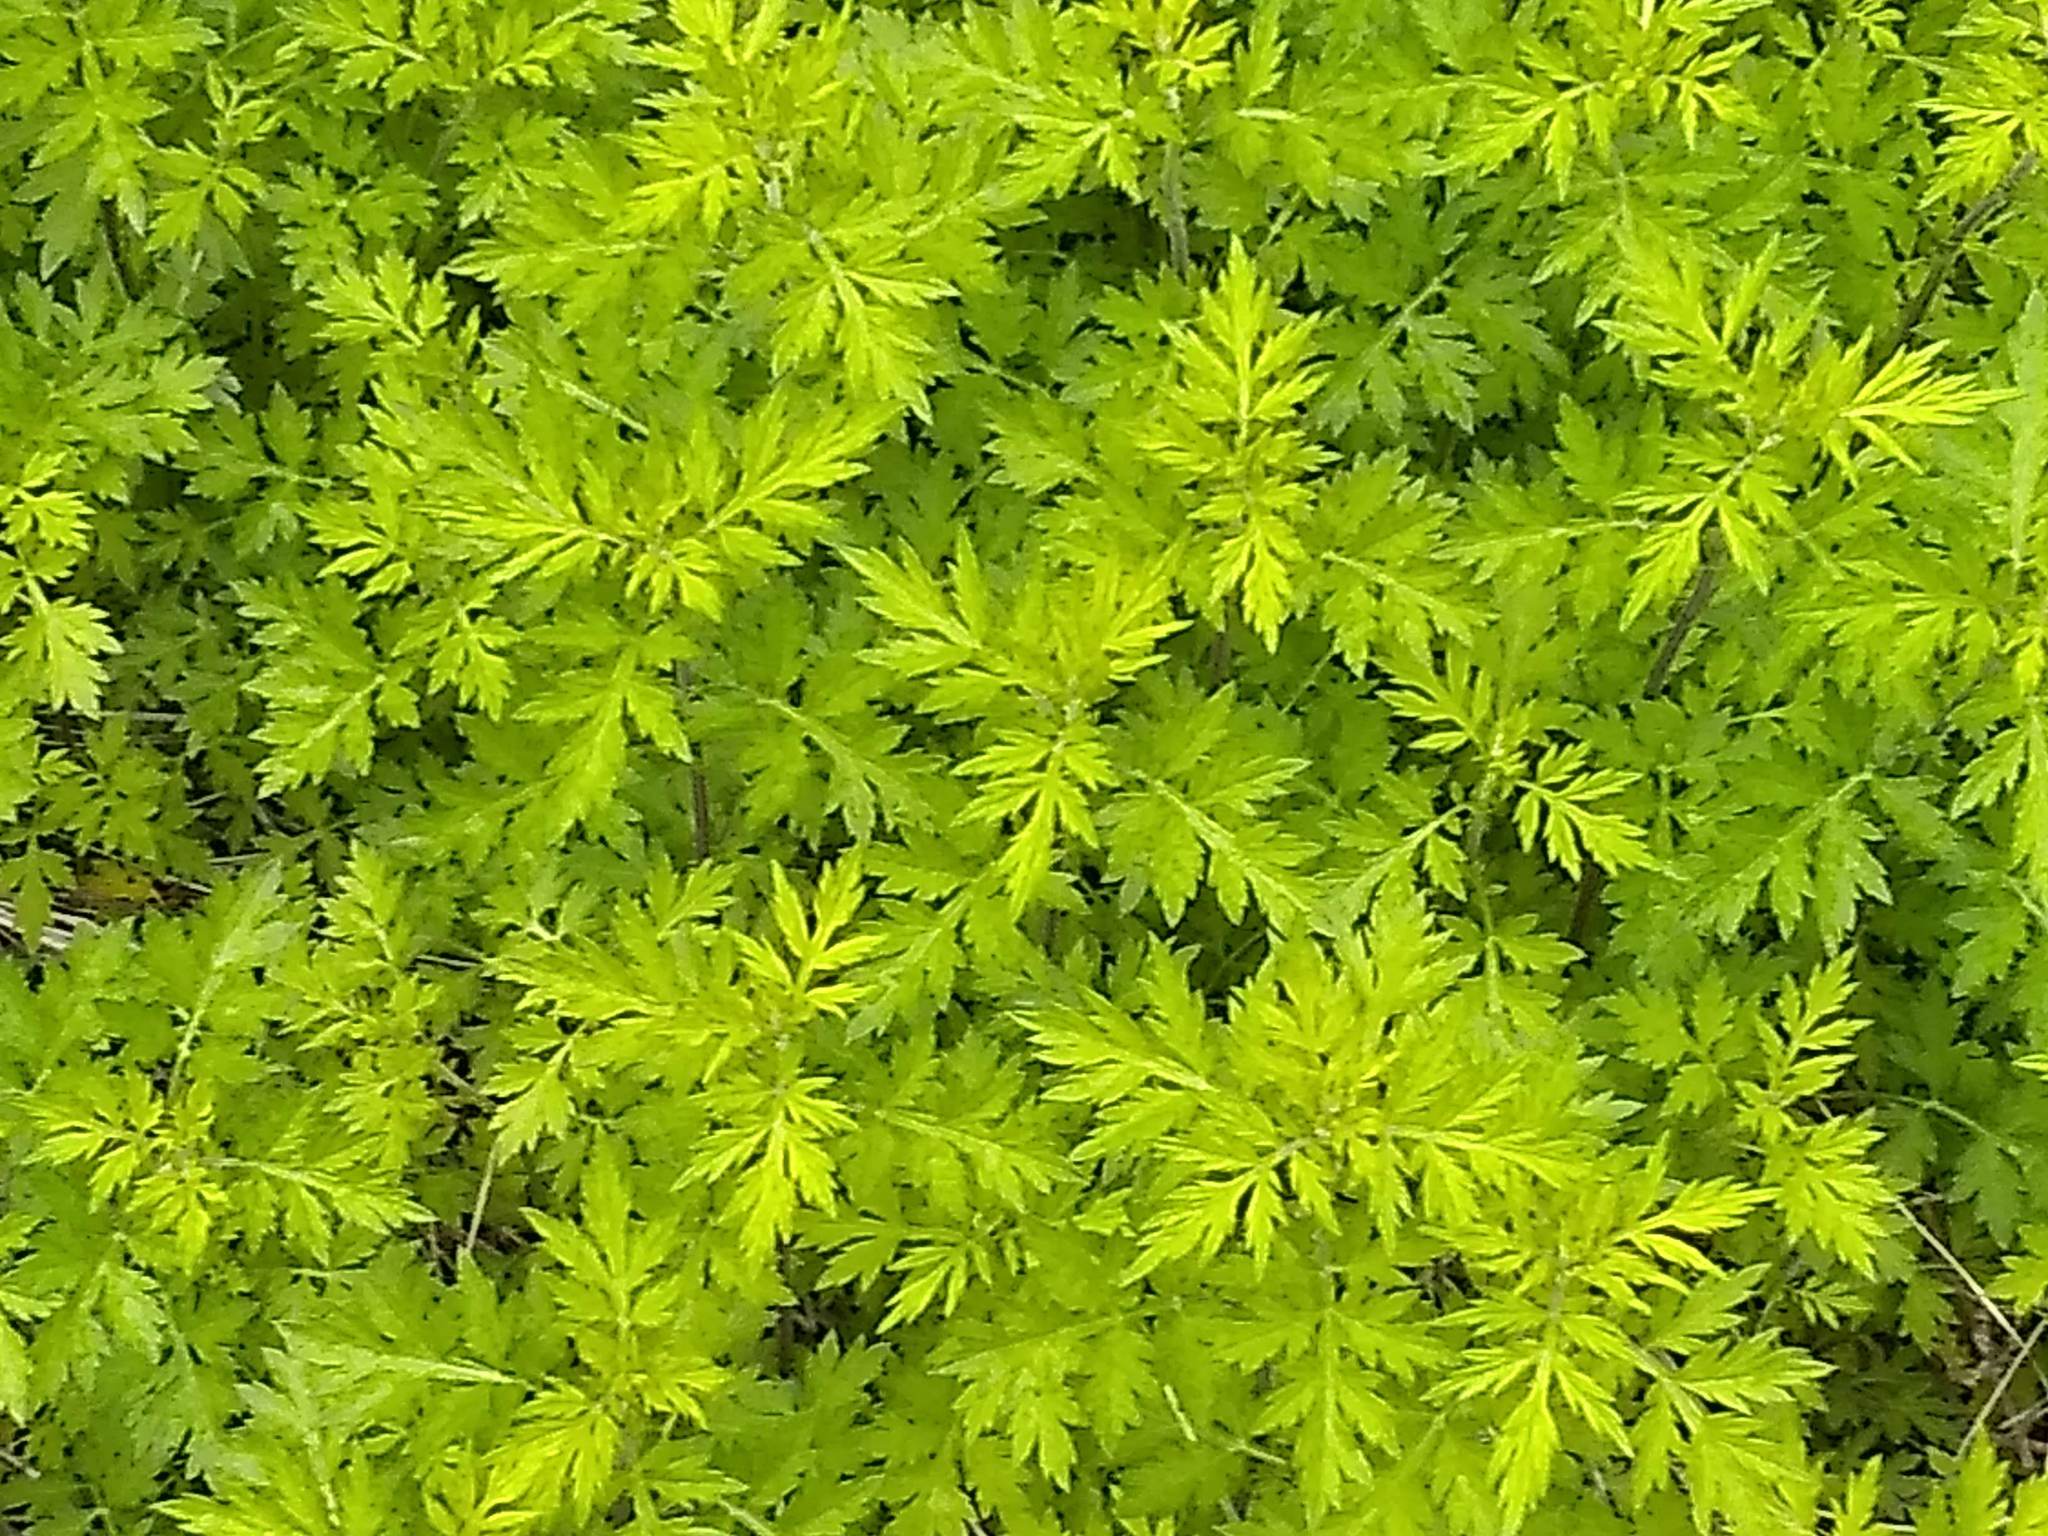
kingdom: Plantae
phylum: Tracheophyta
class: Magnoliopsida
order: Asterales
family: Asteraceae
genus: Artemisia
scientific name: Artemisia vulgaris
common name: Mugwort
